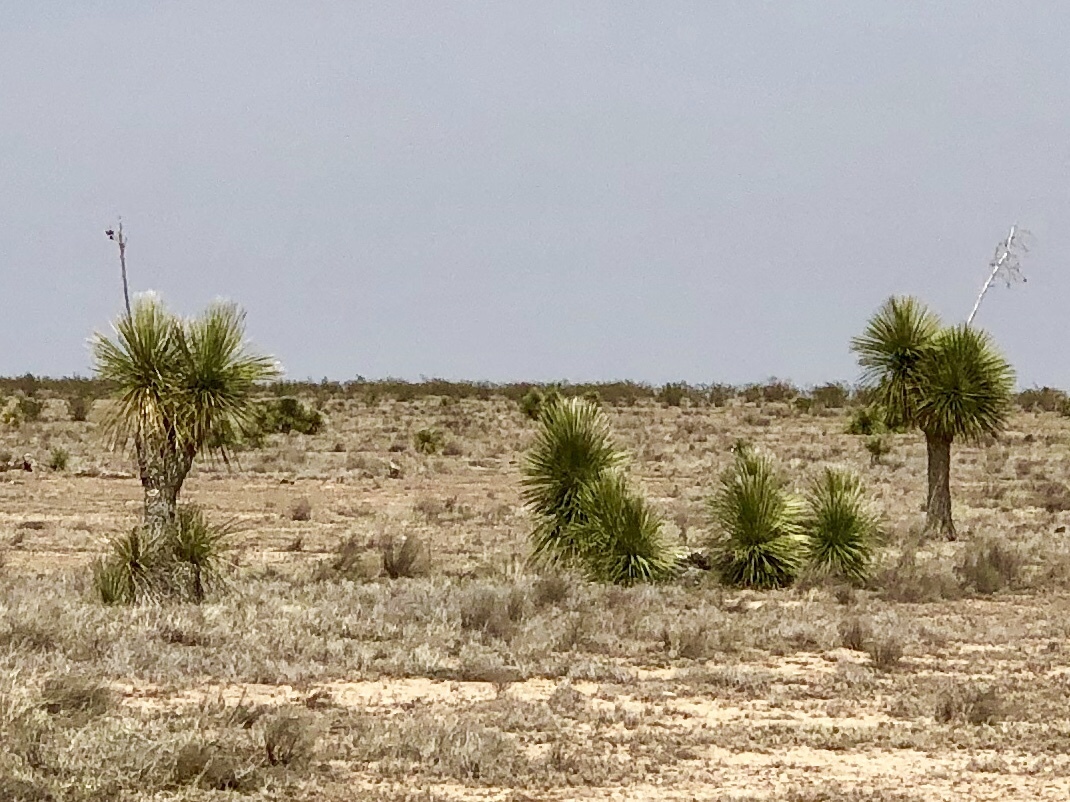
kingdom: Plantae
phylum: Tracheophyta
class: Liliopsida
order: Asparagales
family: Asparagaceae
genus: Yucca
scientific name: Yucca elata
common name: Palmella
